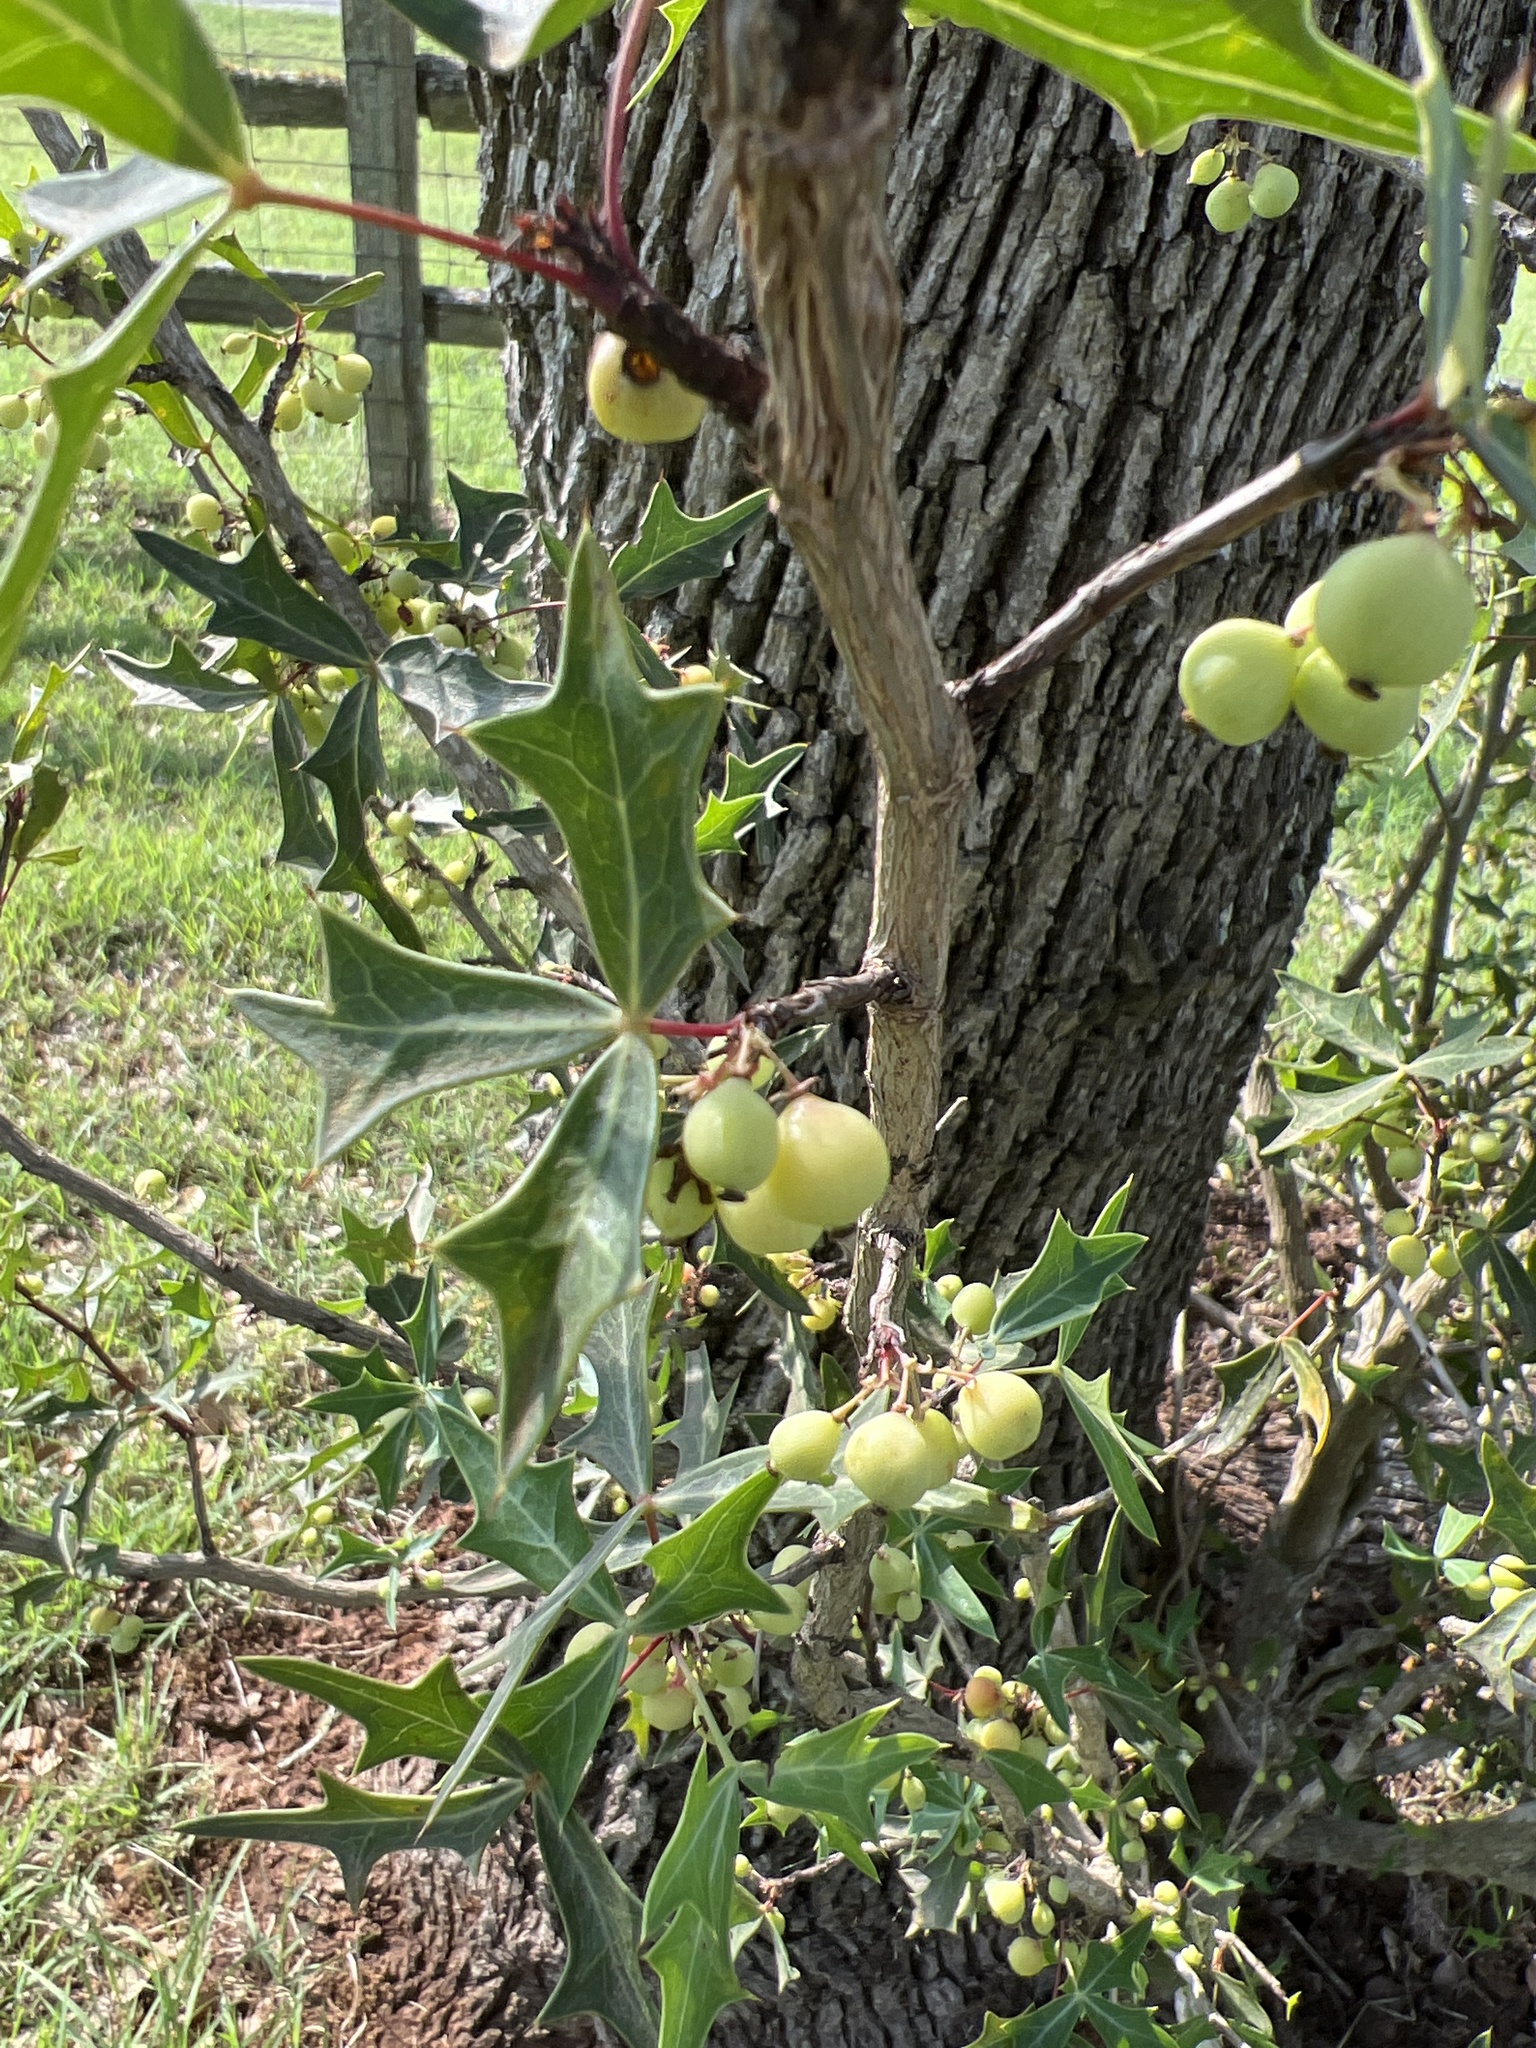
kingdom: Plantae
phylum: Tracheophyta
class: Magnoliopsida
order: Ranunculales
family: Berberidaceae
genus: Alloberberis
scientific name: Alloberberis trifoliolata
